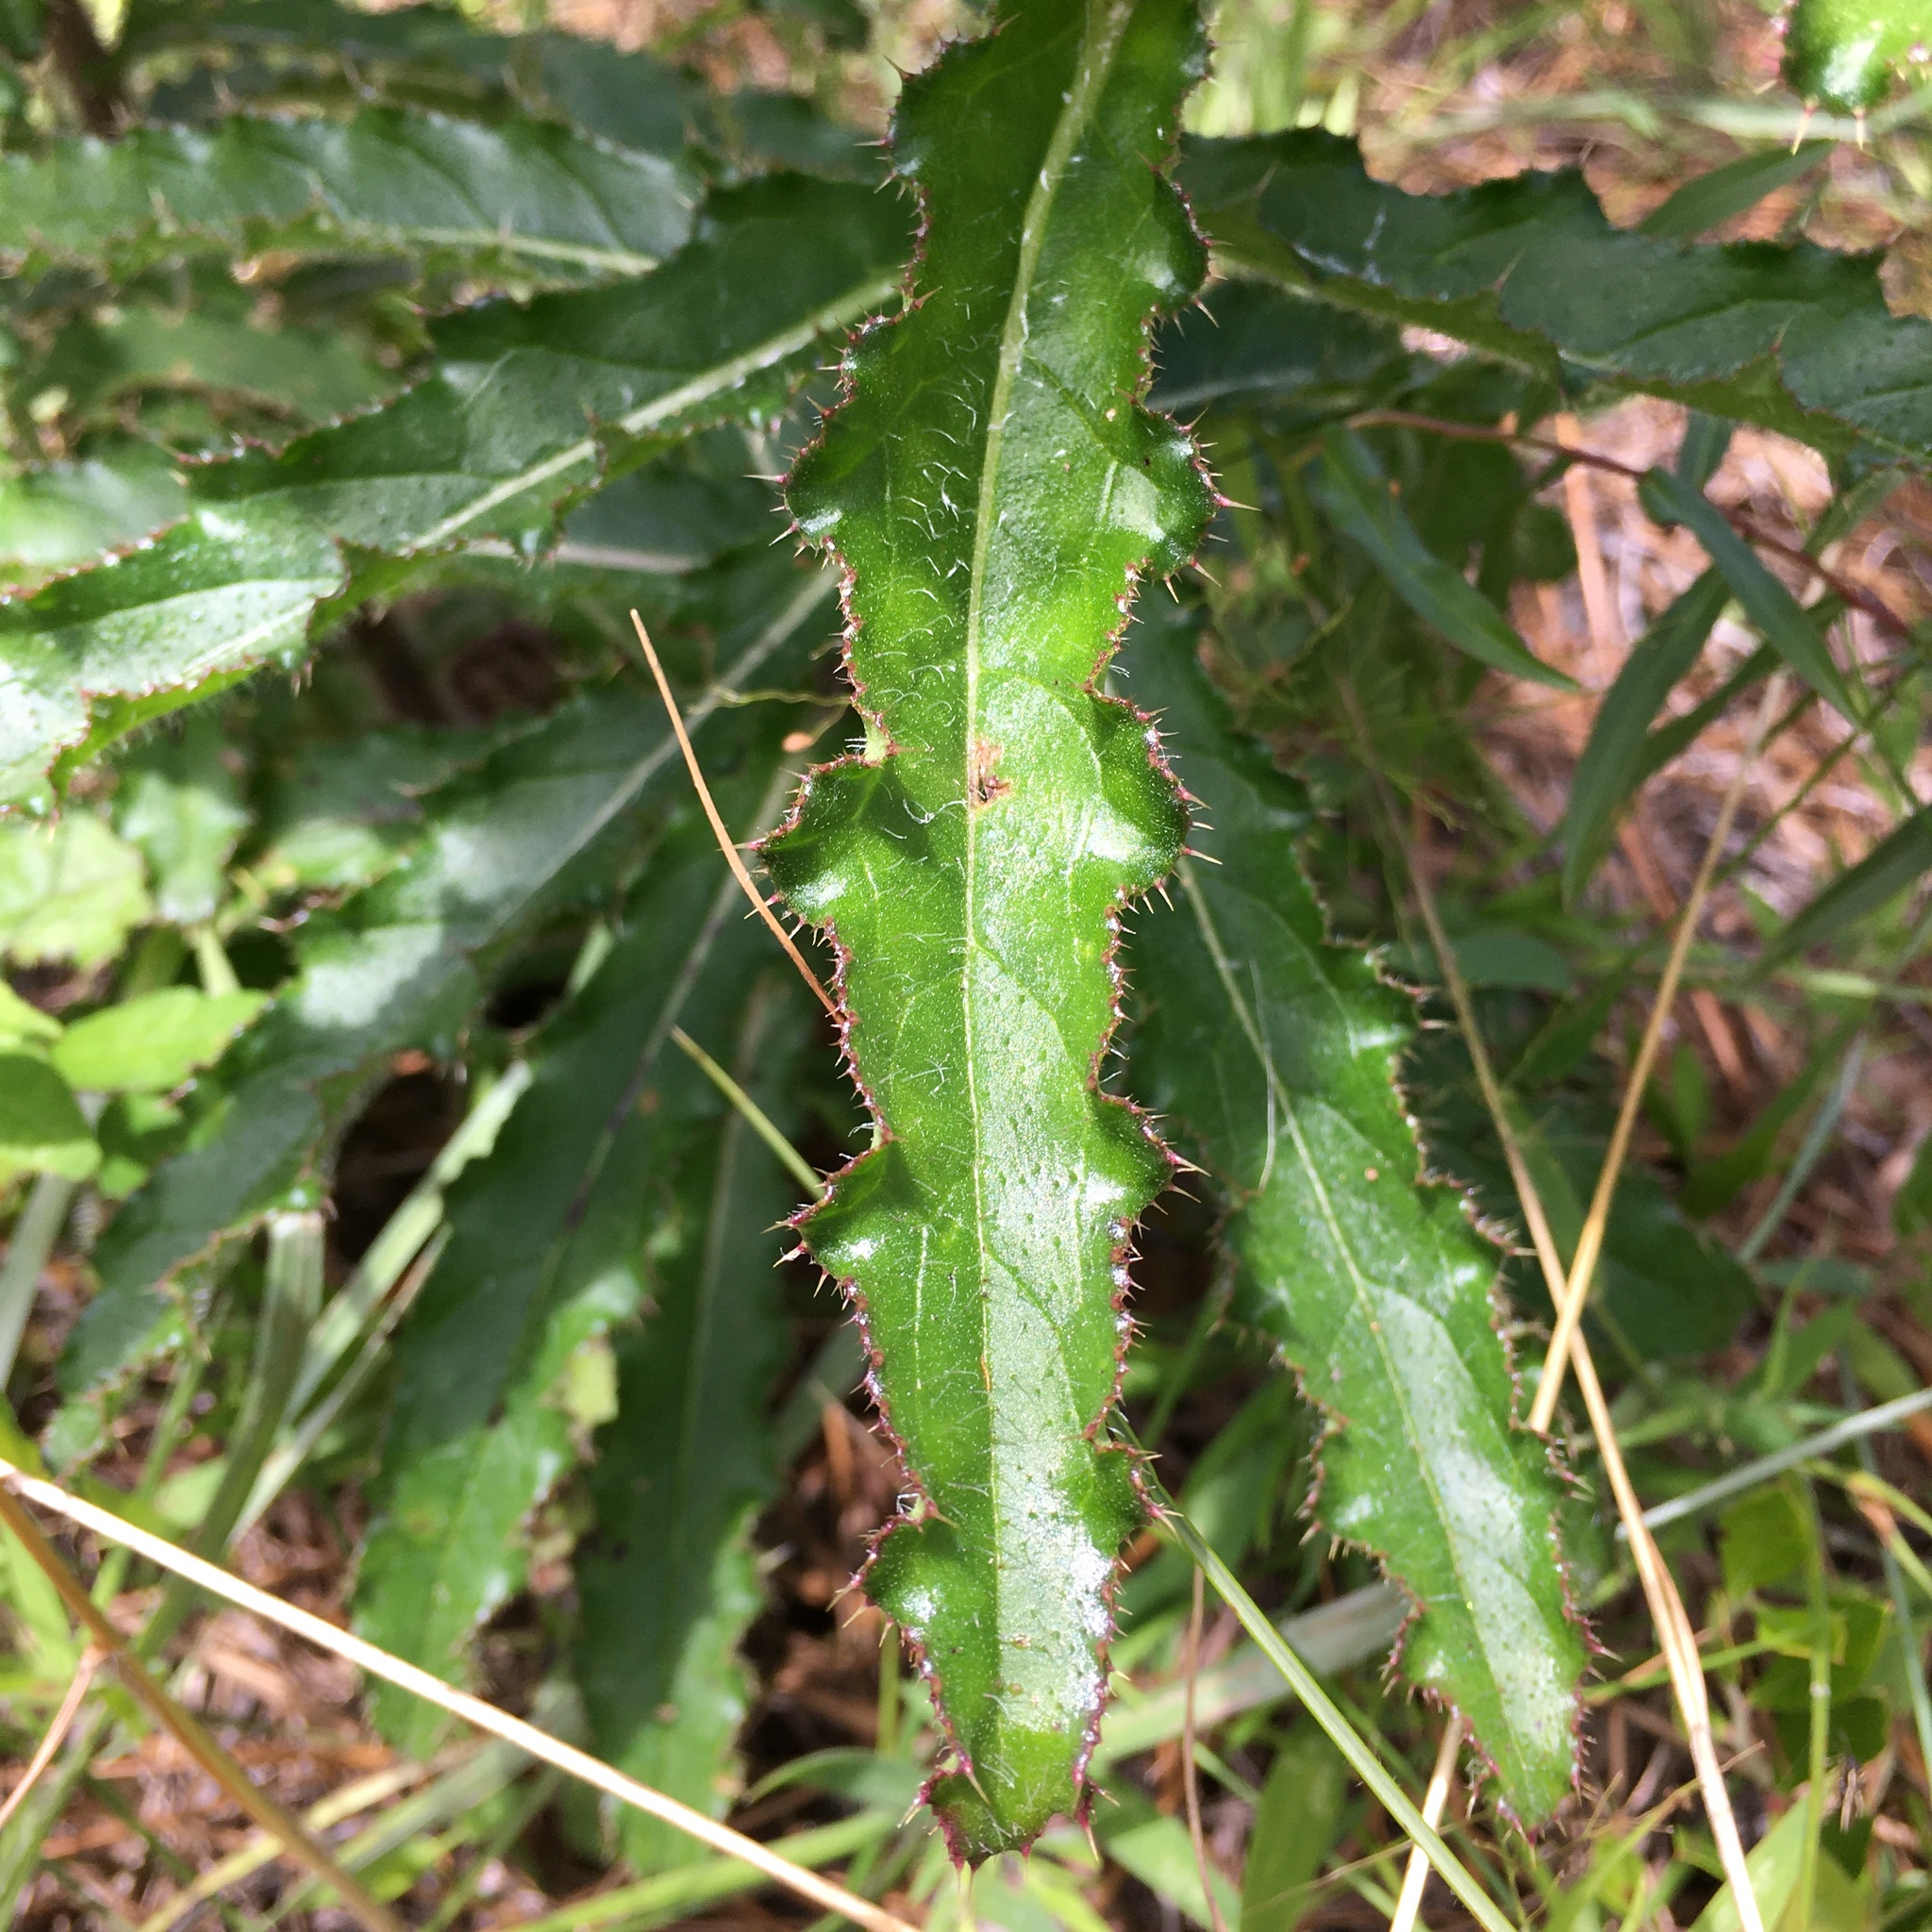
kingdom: Plantae
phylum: Tracheophyta
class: Magnoliopsida
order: Asterales
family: Asteraceae
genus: Cirsium
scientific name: Cirsium repandum
